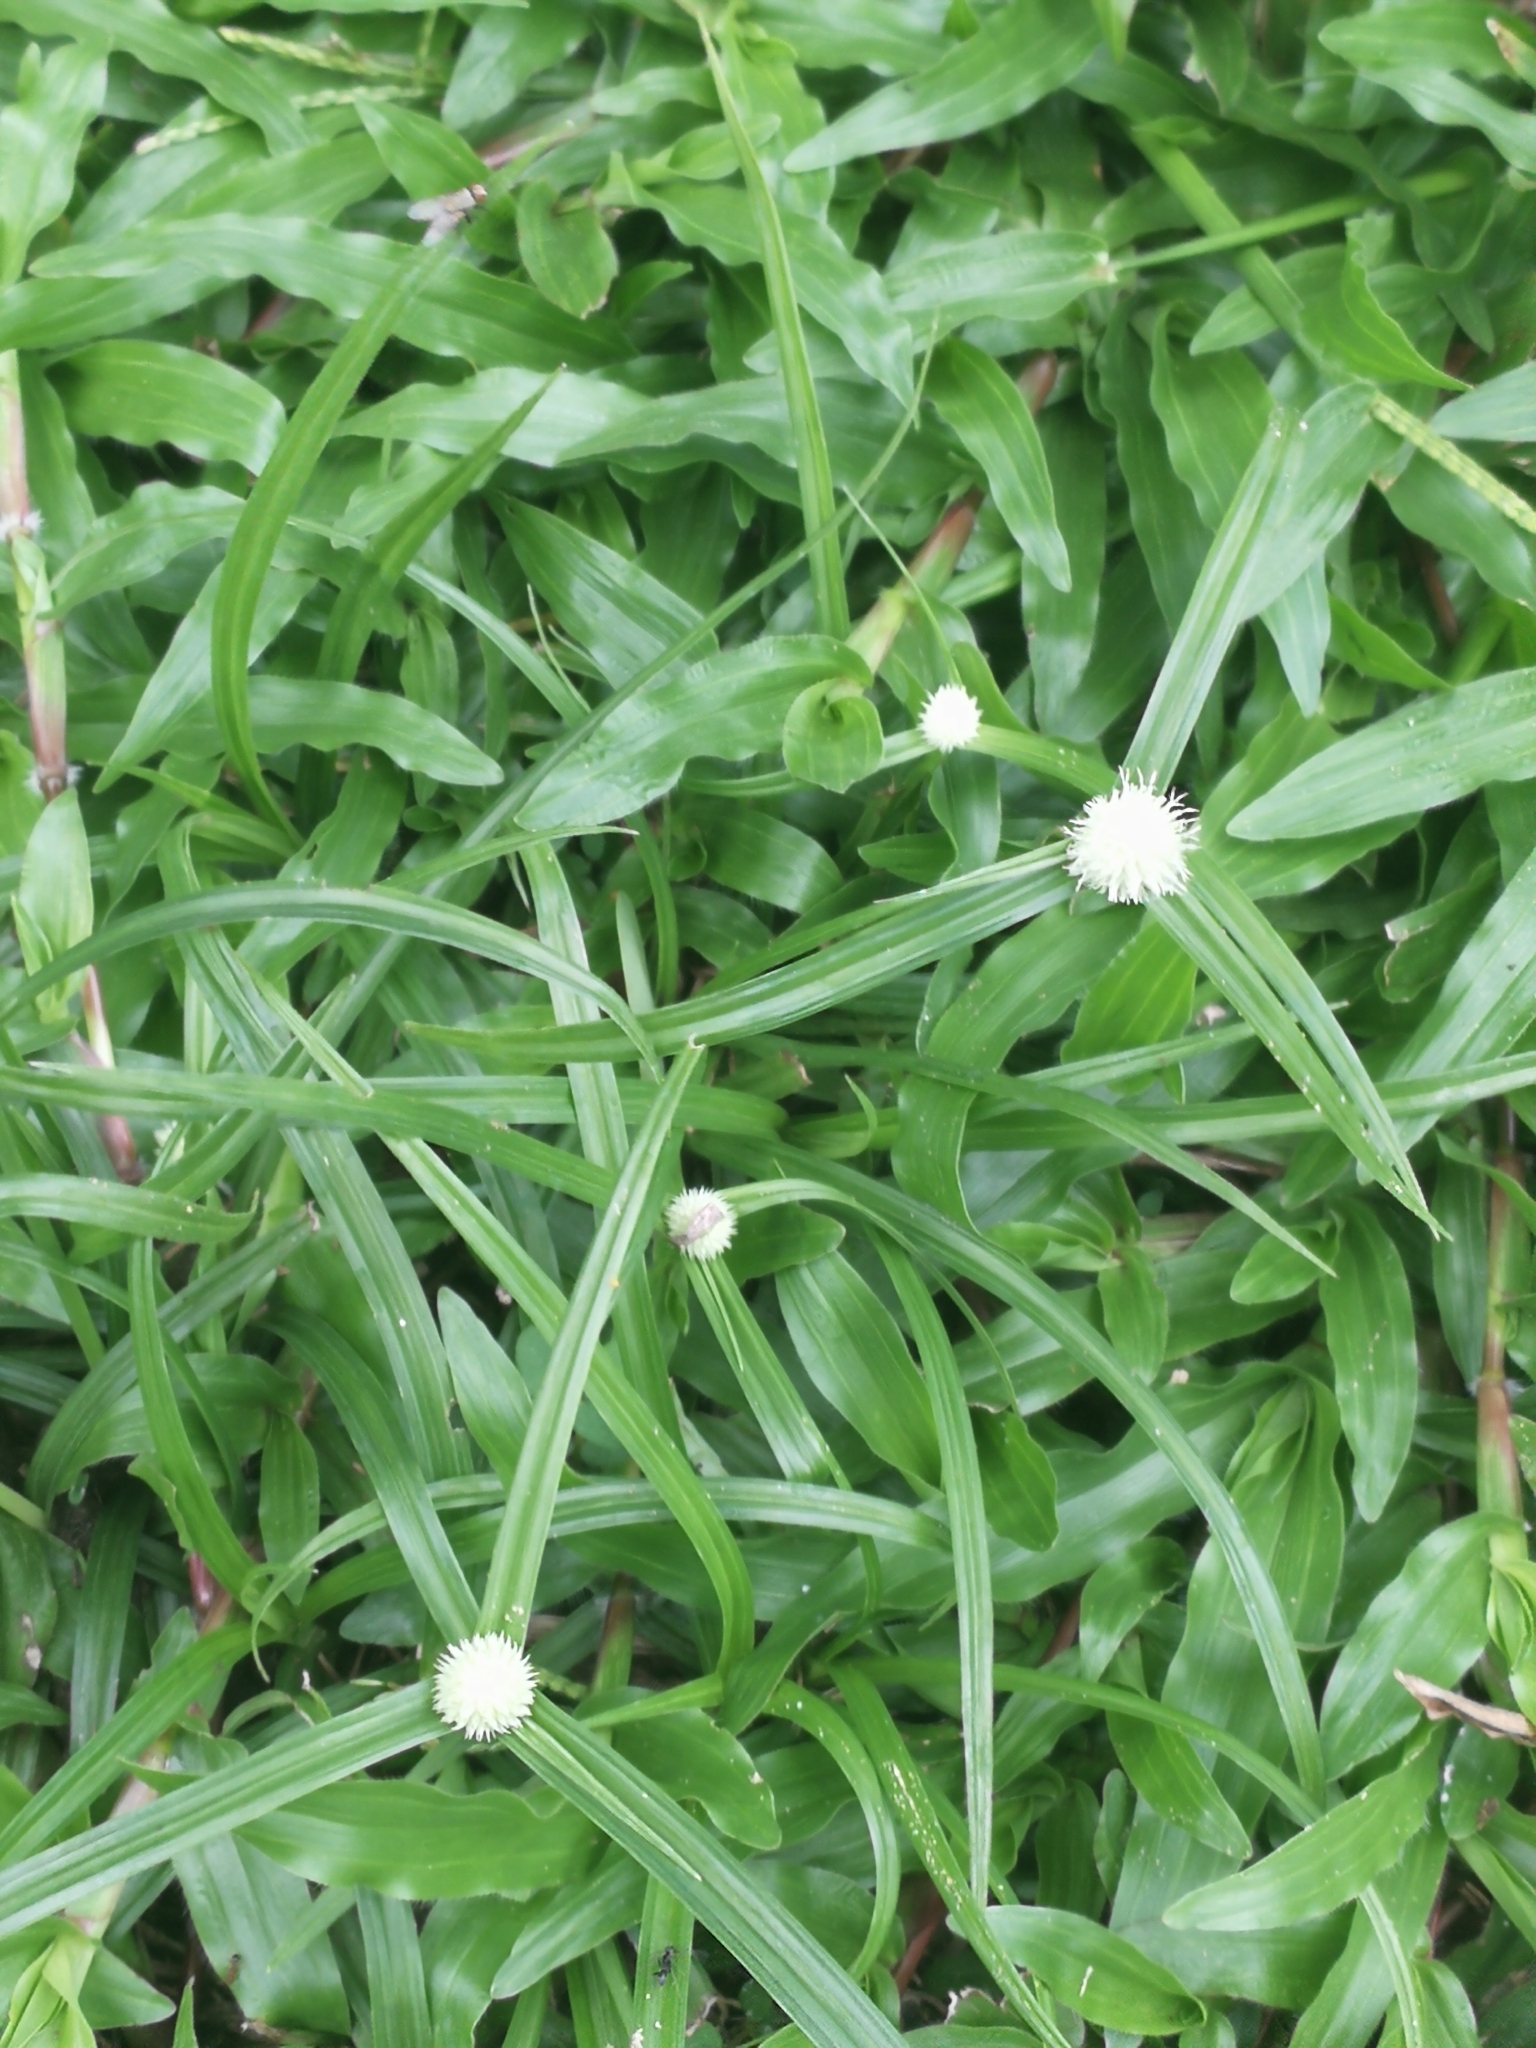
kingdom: Plantae
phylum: Tracheophyta
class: Liliopsida
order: Poales
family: Cyperaceae
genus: Cyperus
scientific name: Cyperus hortensis
